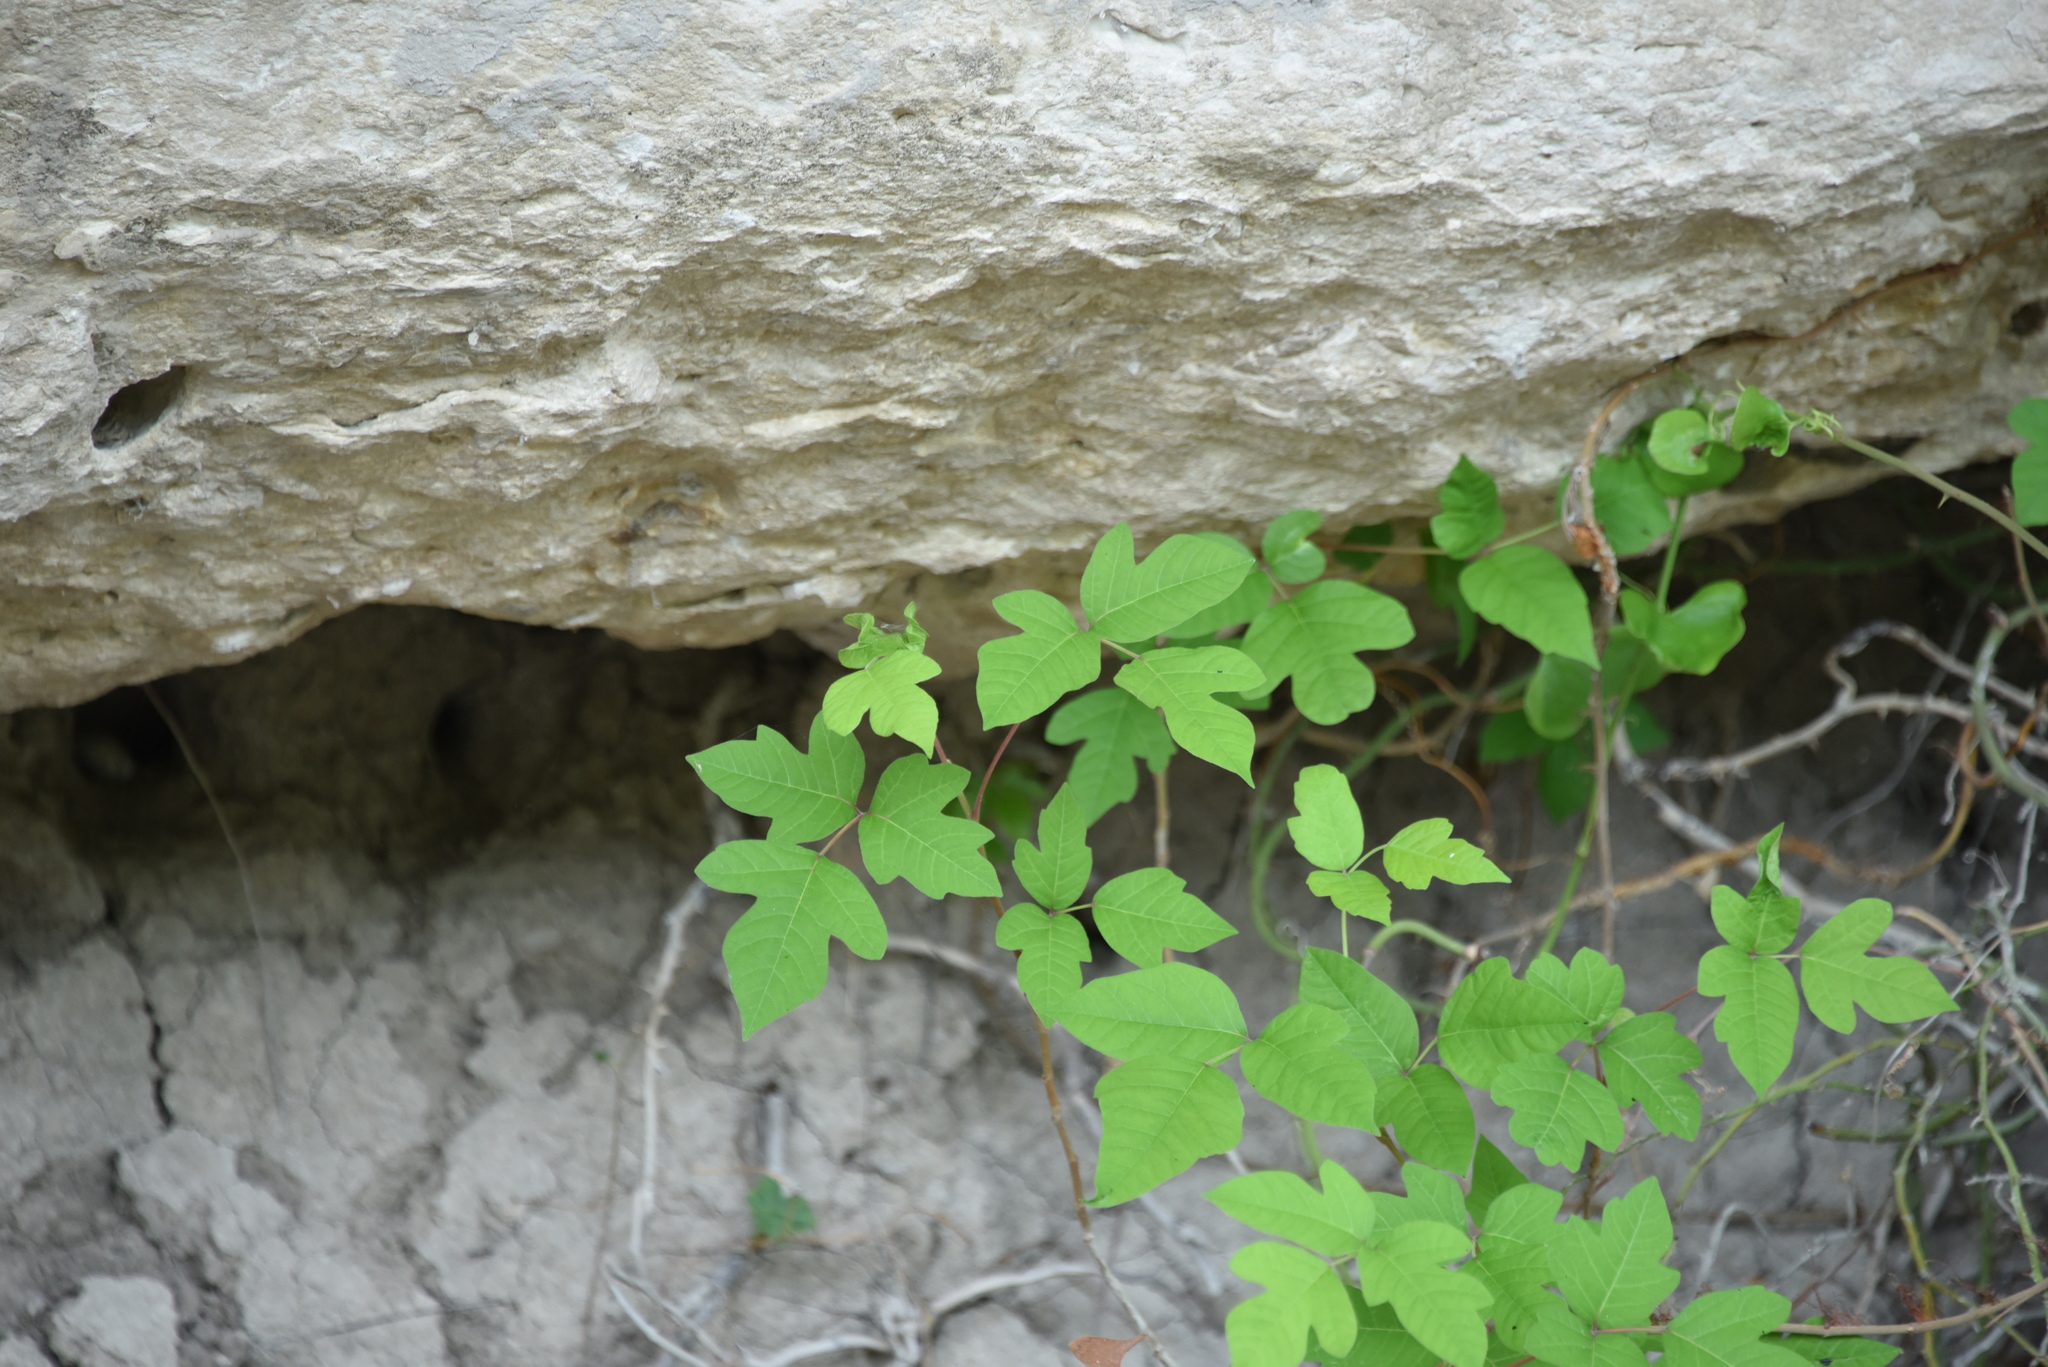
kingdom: Plantae
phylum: Tracheophyta
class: Magnoliopsida
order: Sapindales
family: Anacardiaceae
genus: Toxicodendron
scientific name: Toxicodendron radicans
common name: Poison ivy
